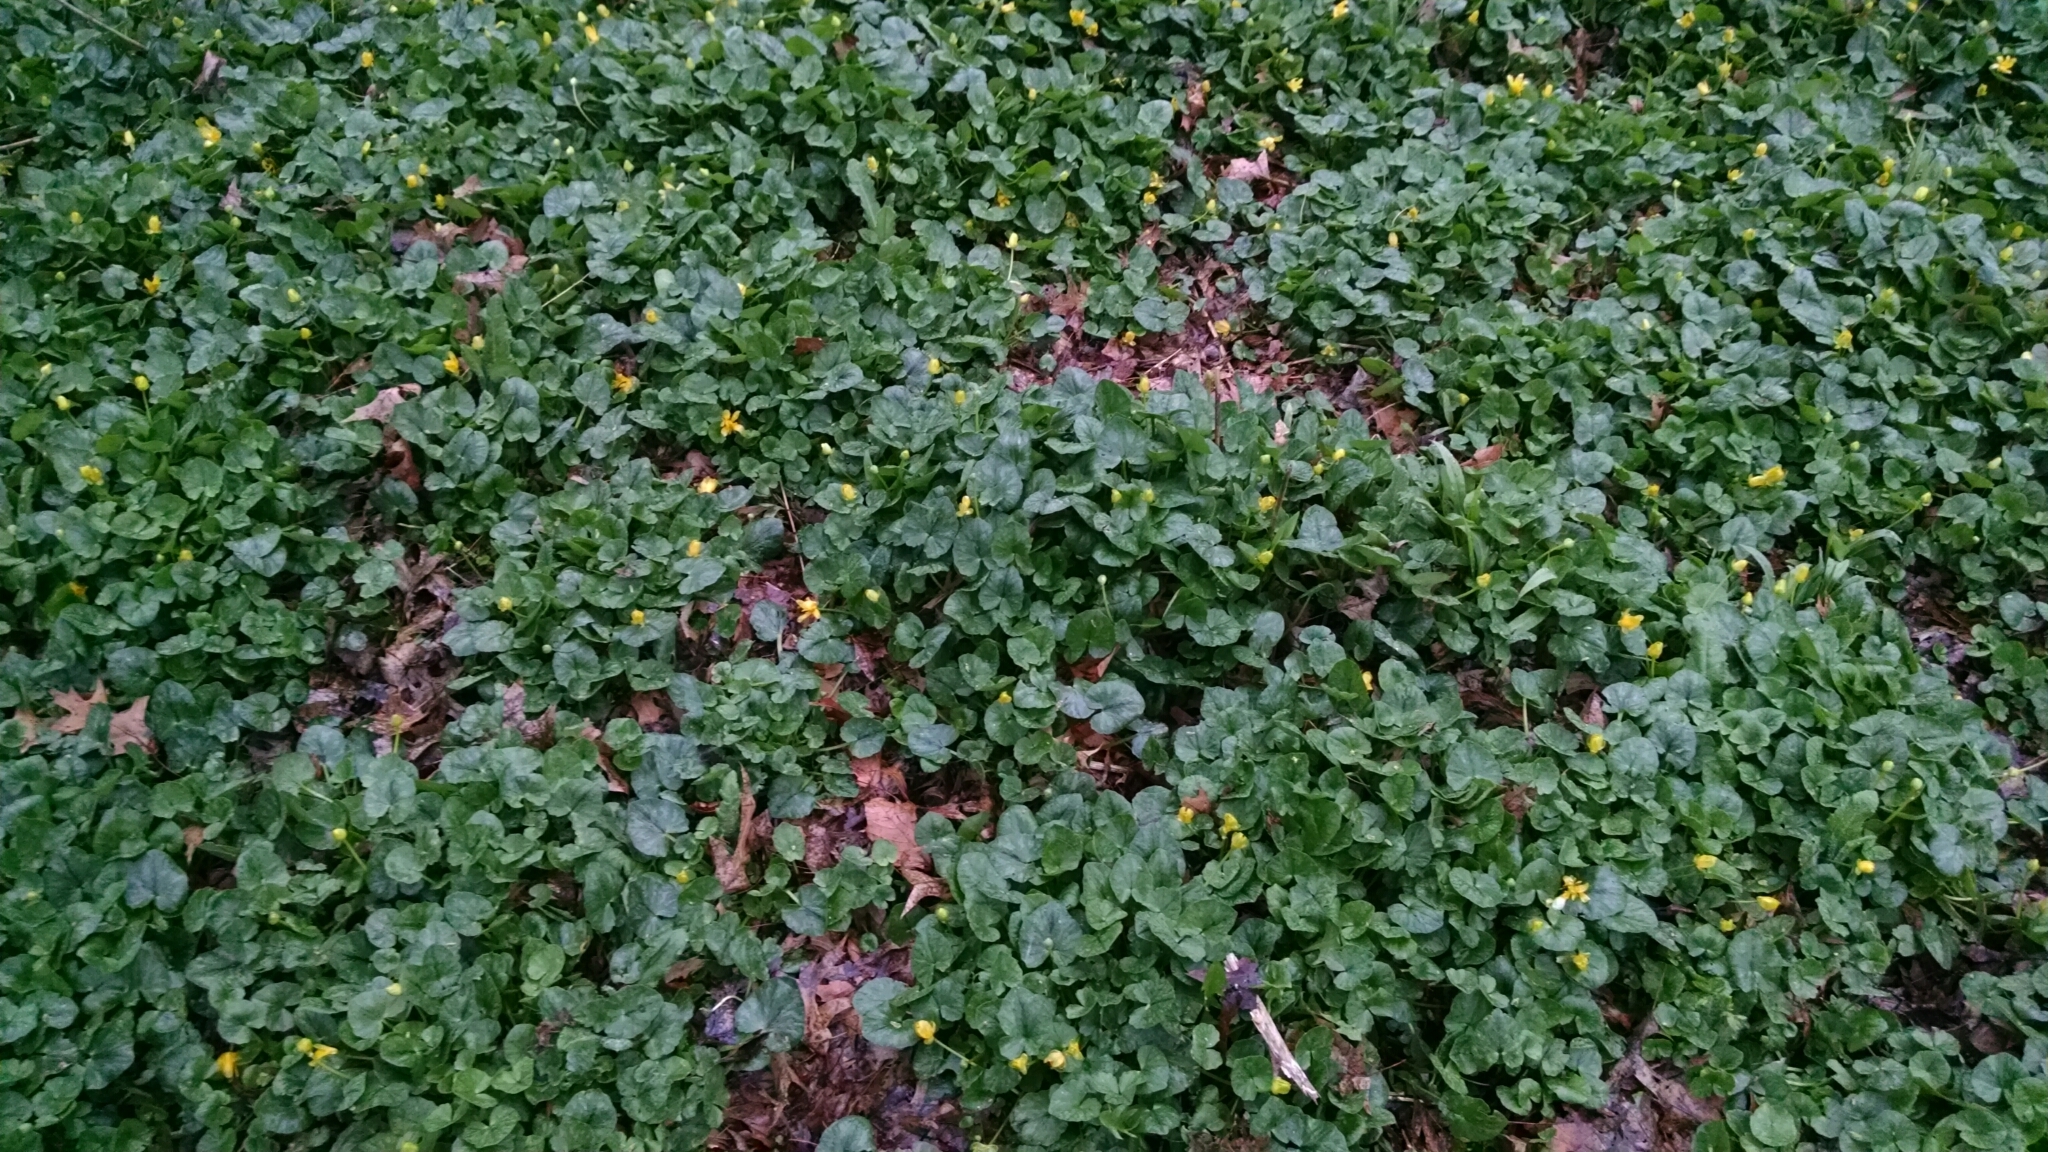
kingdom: Plantae
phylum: Tracheophyta
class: Magnoliopsida
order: Ranunculales
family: Ranunculaceae
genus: Ficaria
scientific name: Ficaria verna
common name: Lesser celandine
